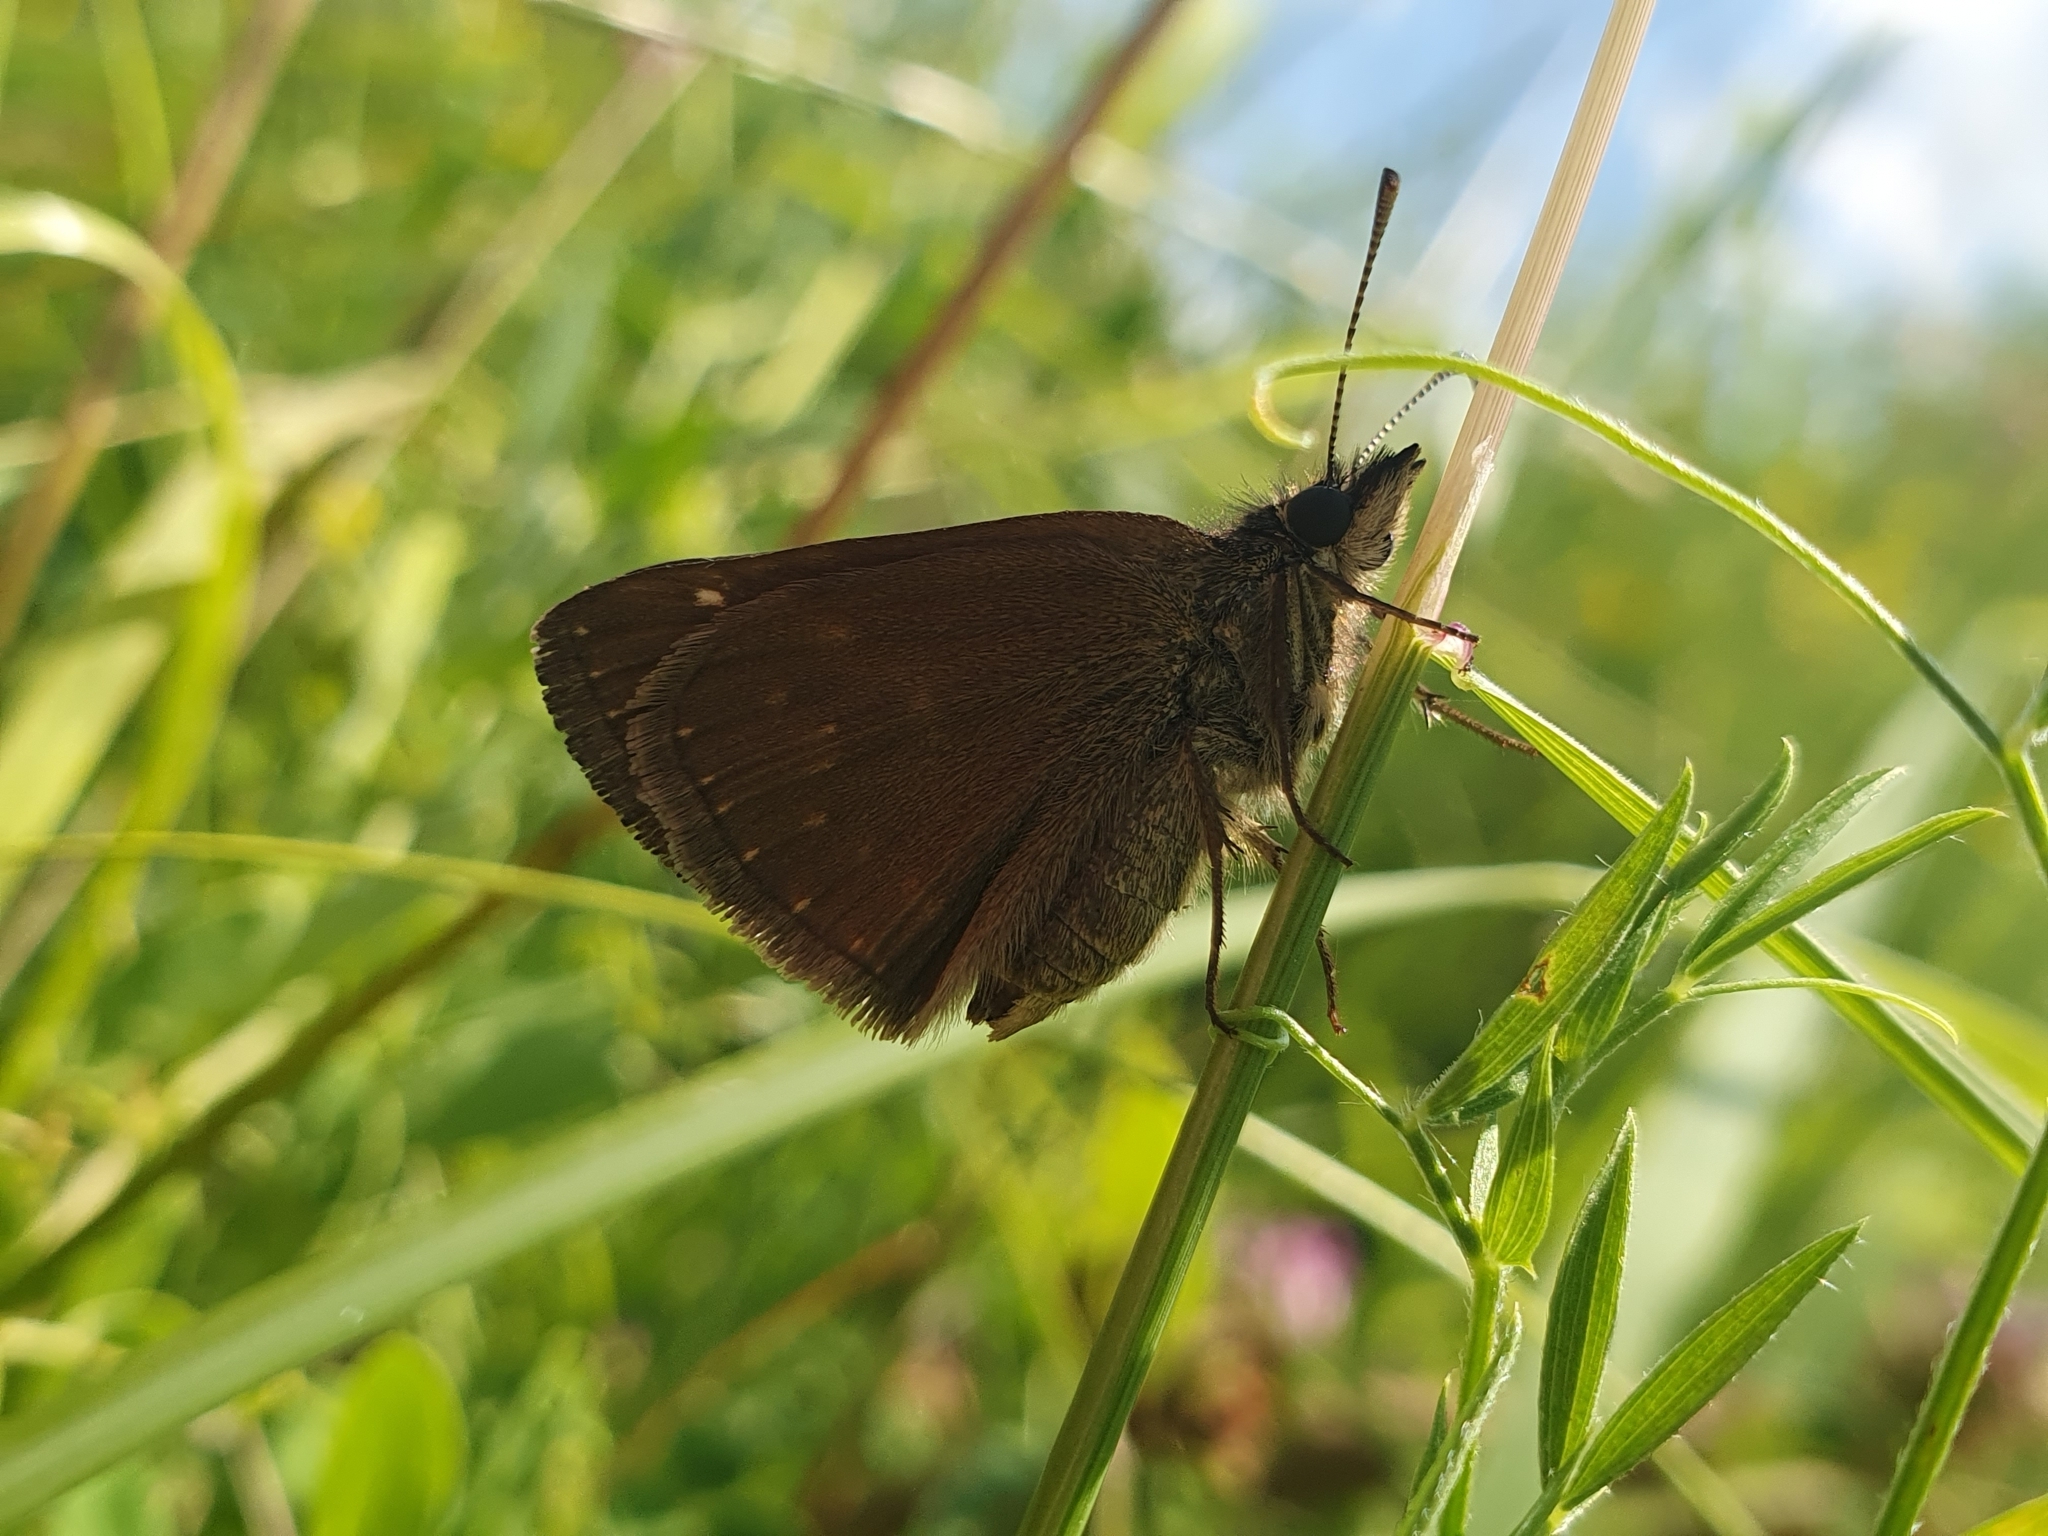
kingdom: Animalia
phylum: Arthropoda
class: Insecta
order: Lepidoptera
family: Hesperiidae
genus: Erynnis
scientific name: Erynnis tages
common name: Dingy skipper
